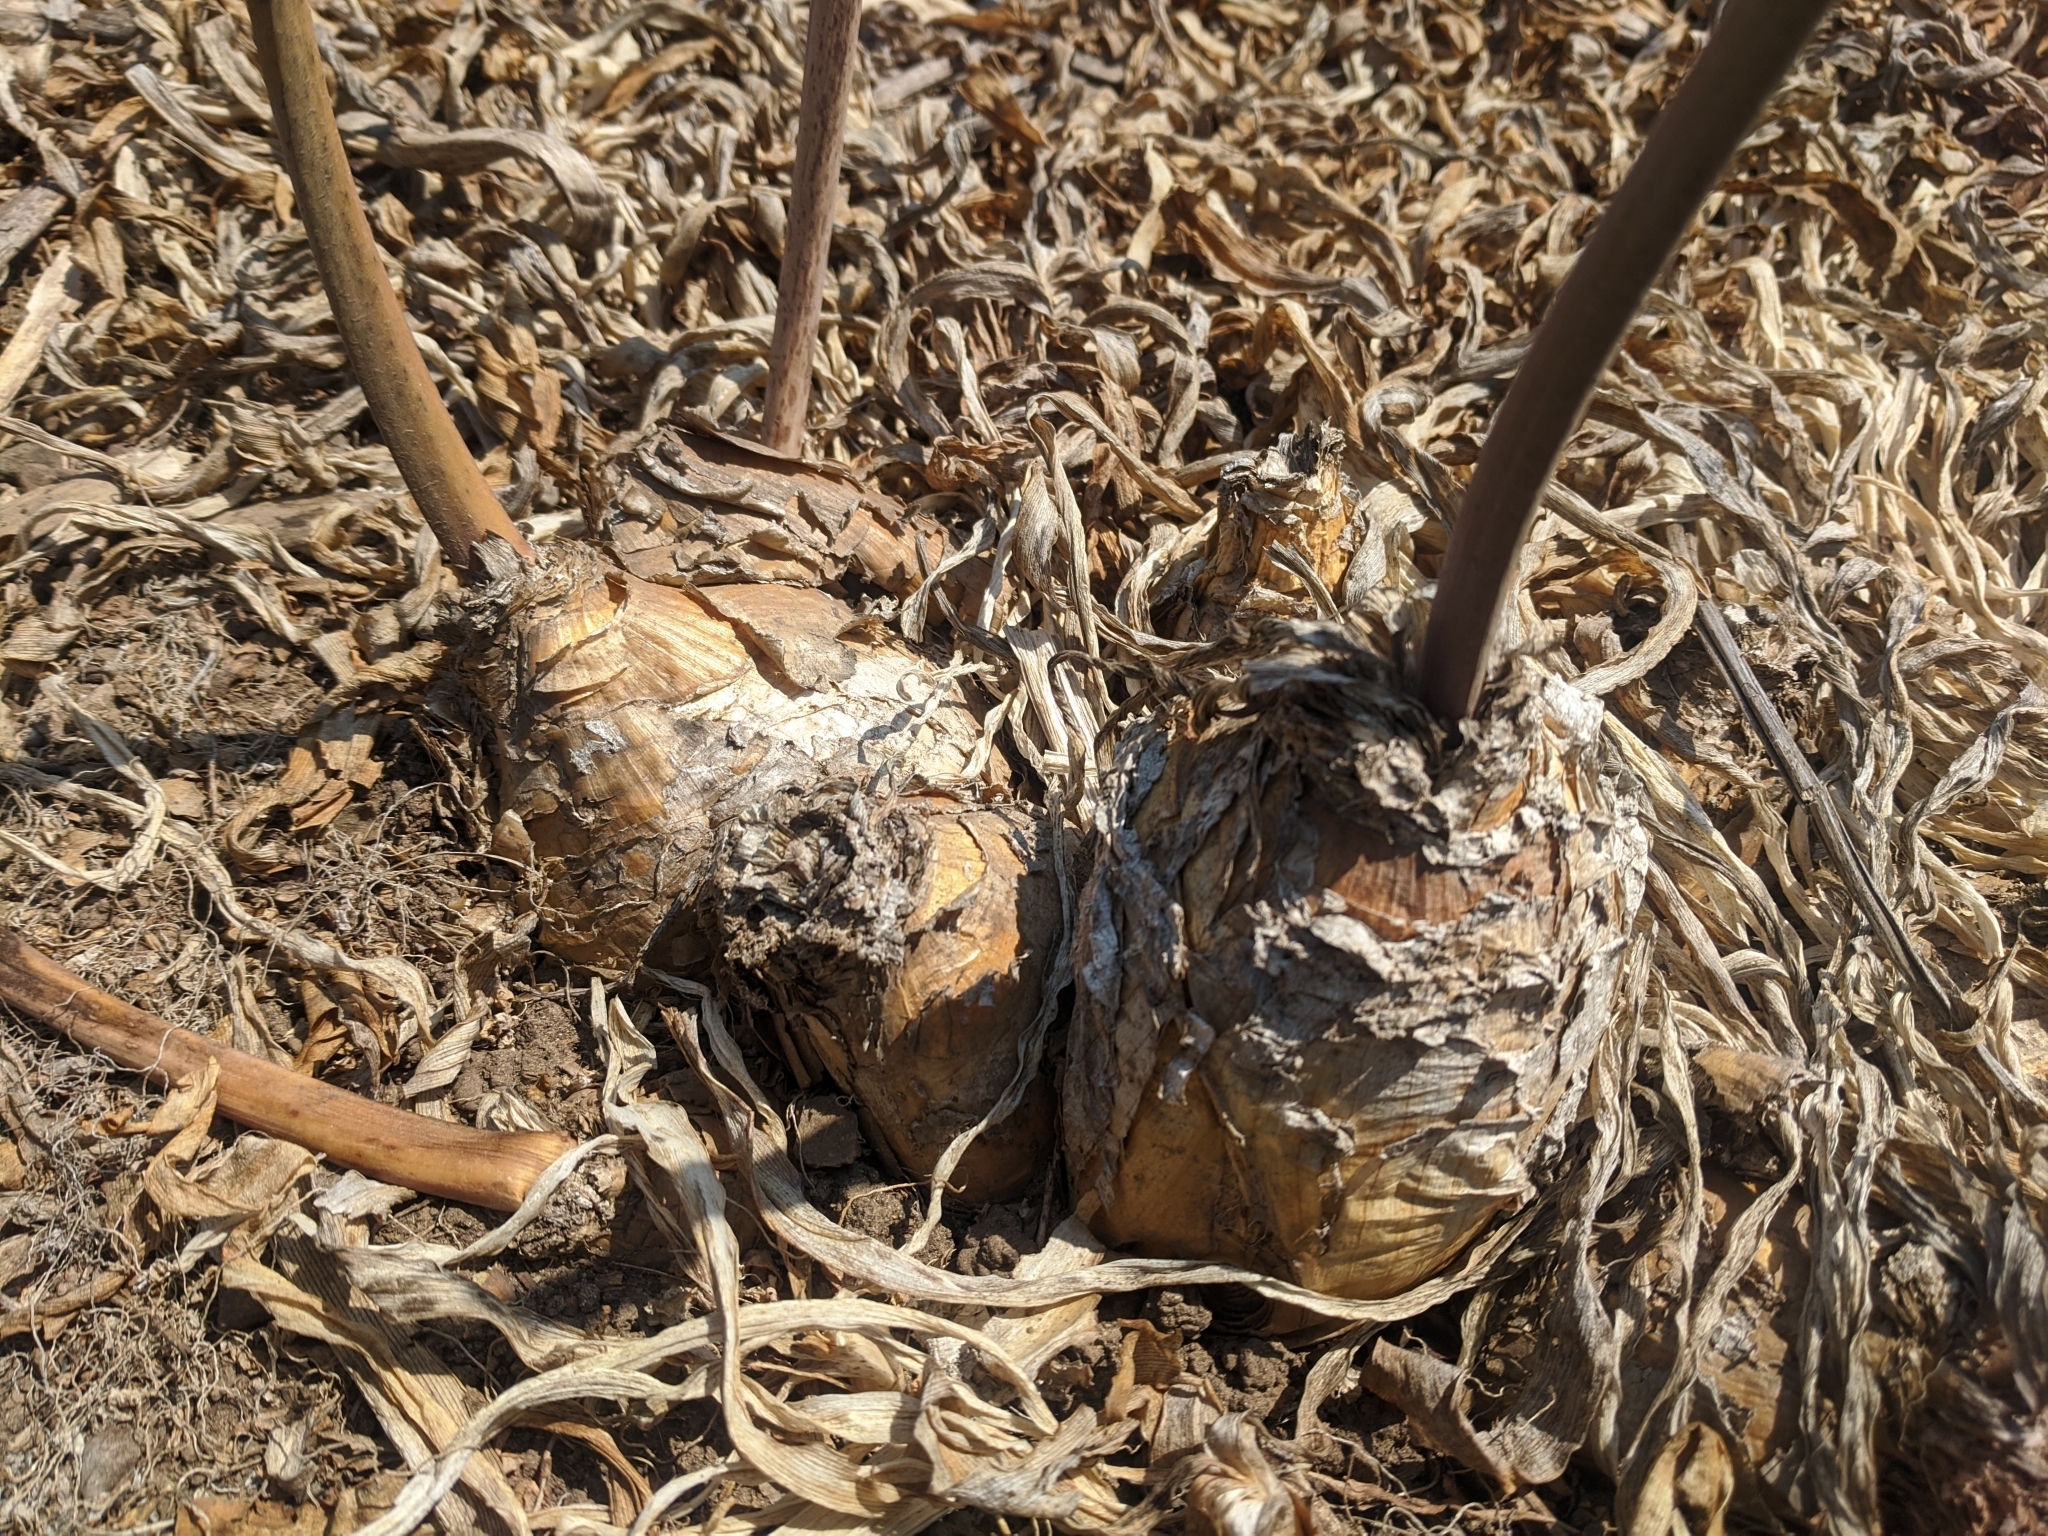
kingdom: Plantae
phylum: Tracheophyta
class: Liliopsida
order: Asparagales
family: Amaryllidaceae
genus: Amaryllis
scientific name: Amaryllis belladonna
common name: Jersey lily
